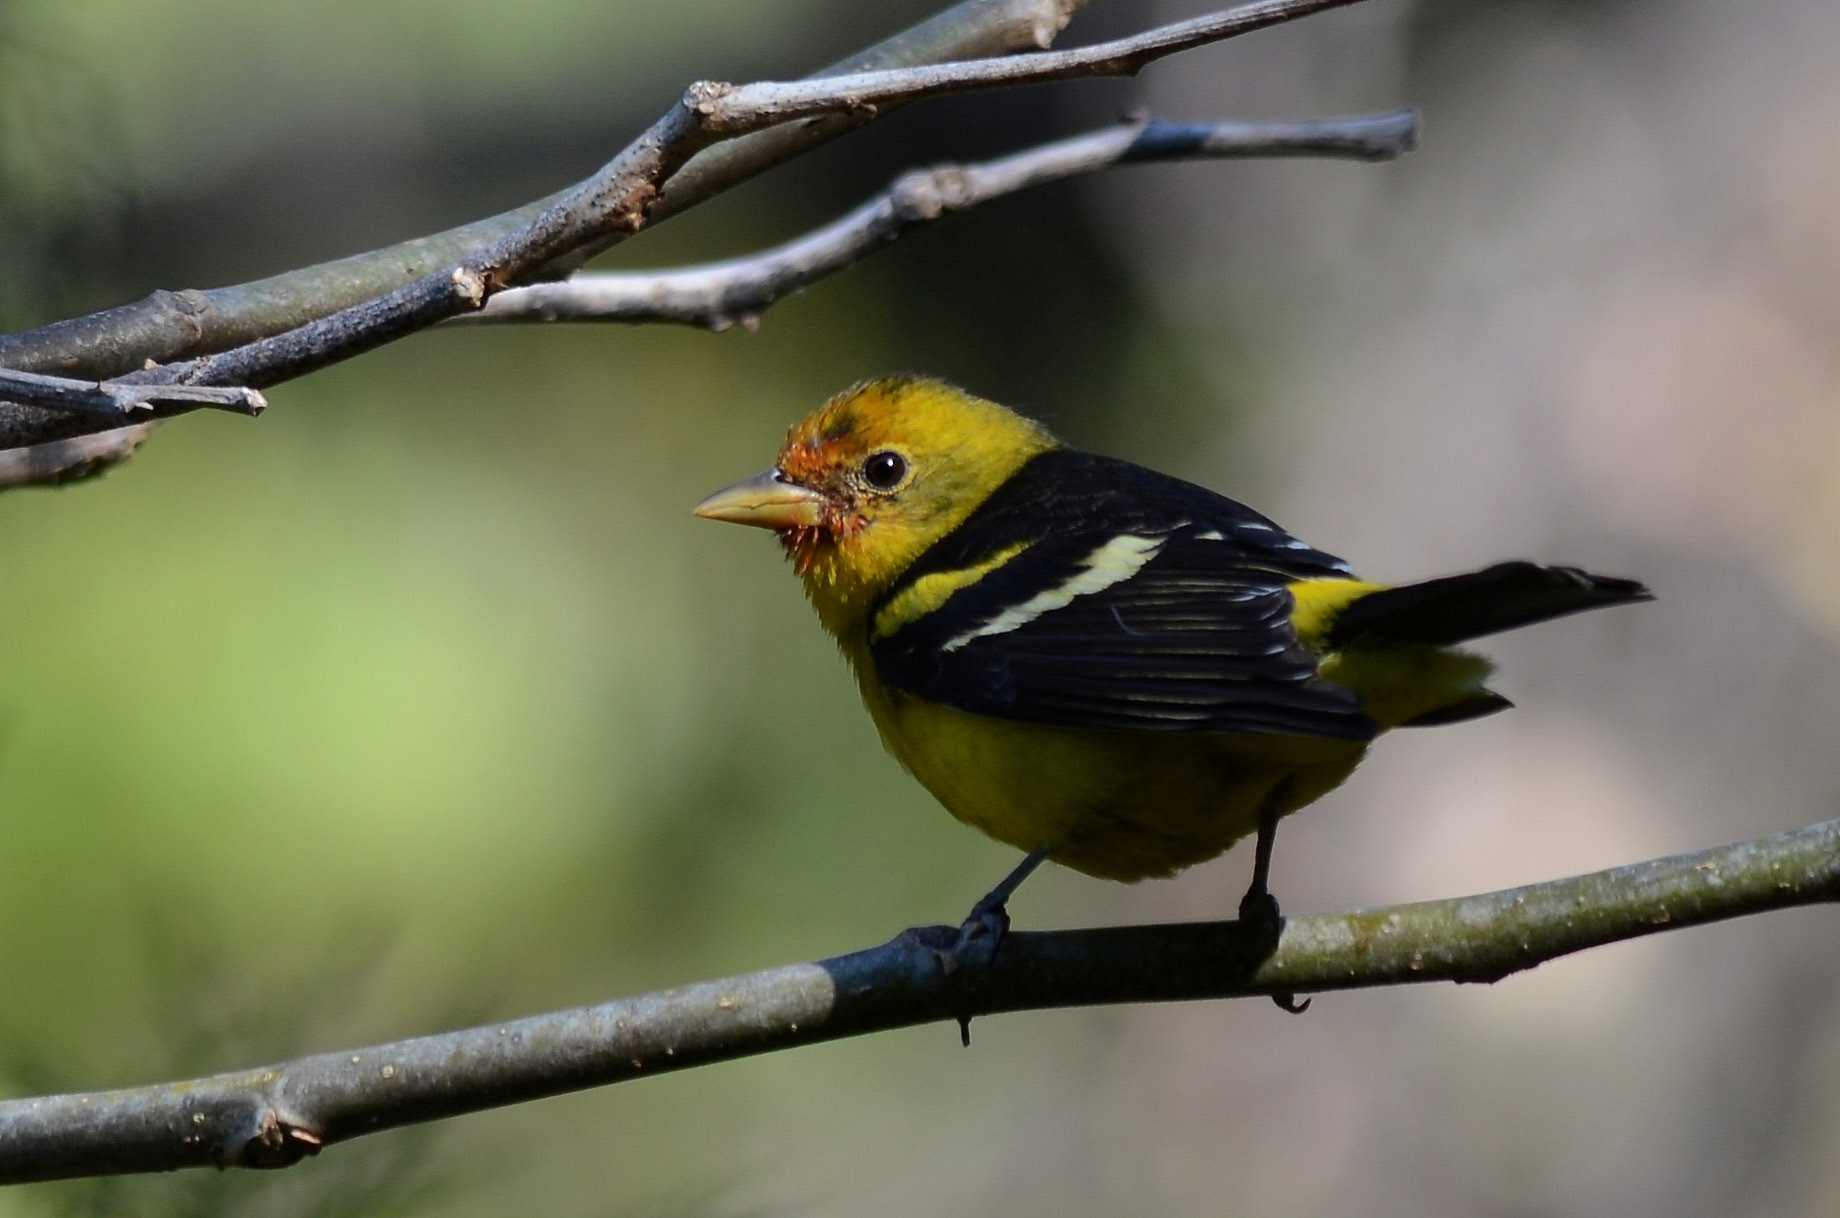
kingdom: Animalia
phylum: Chordata
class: Aves
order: Passeriformes
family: Cardinalidae
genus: Piranga
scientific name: Piranga ludoviciana
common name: Western tanager
